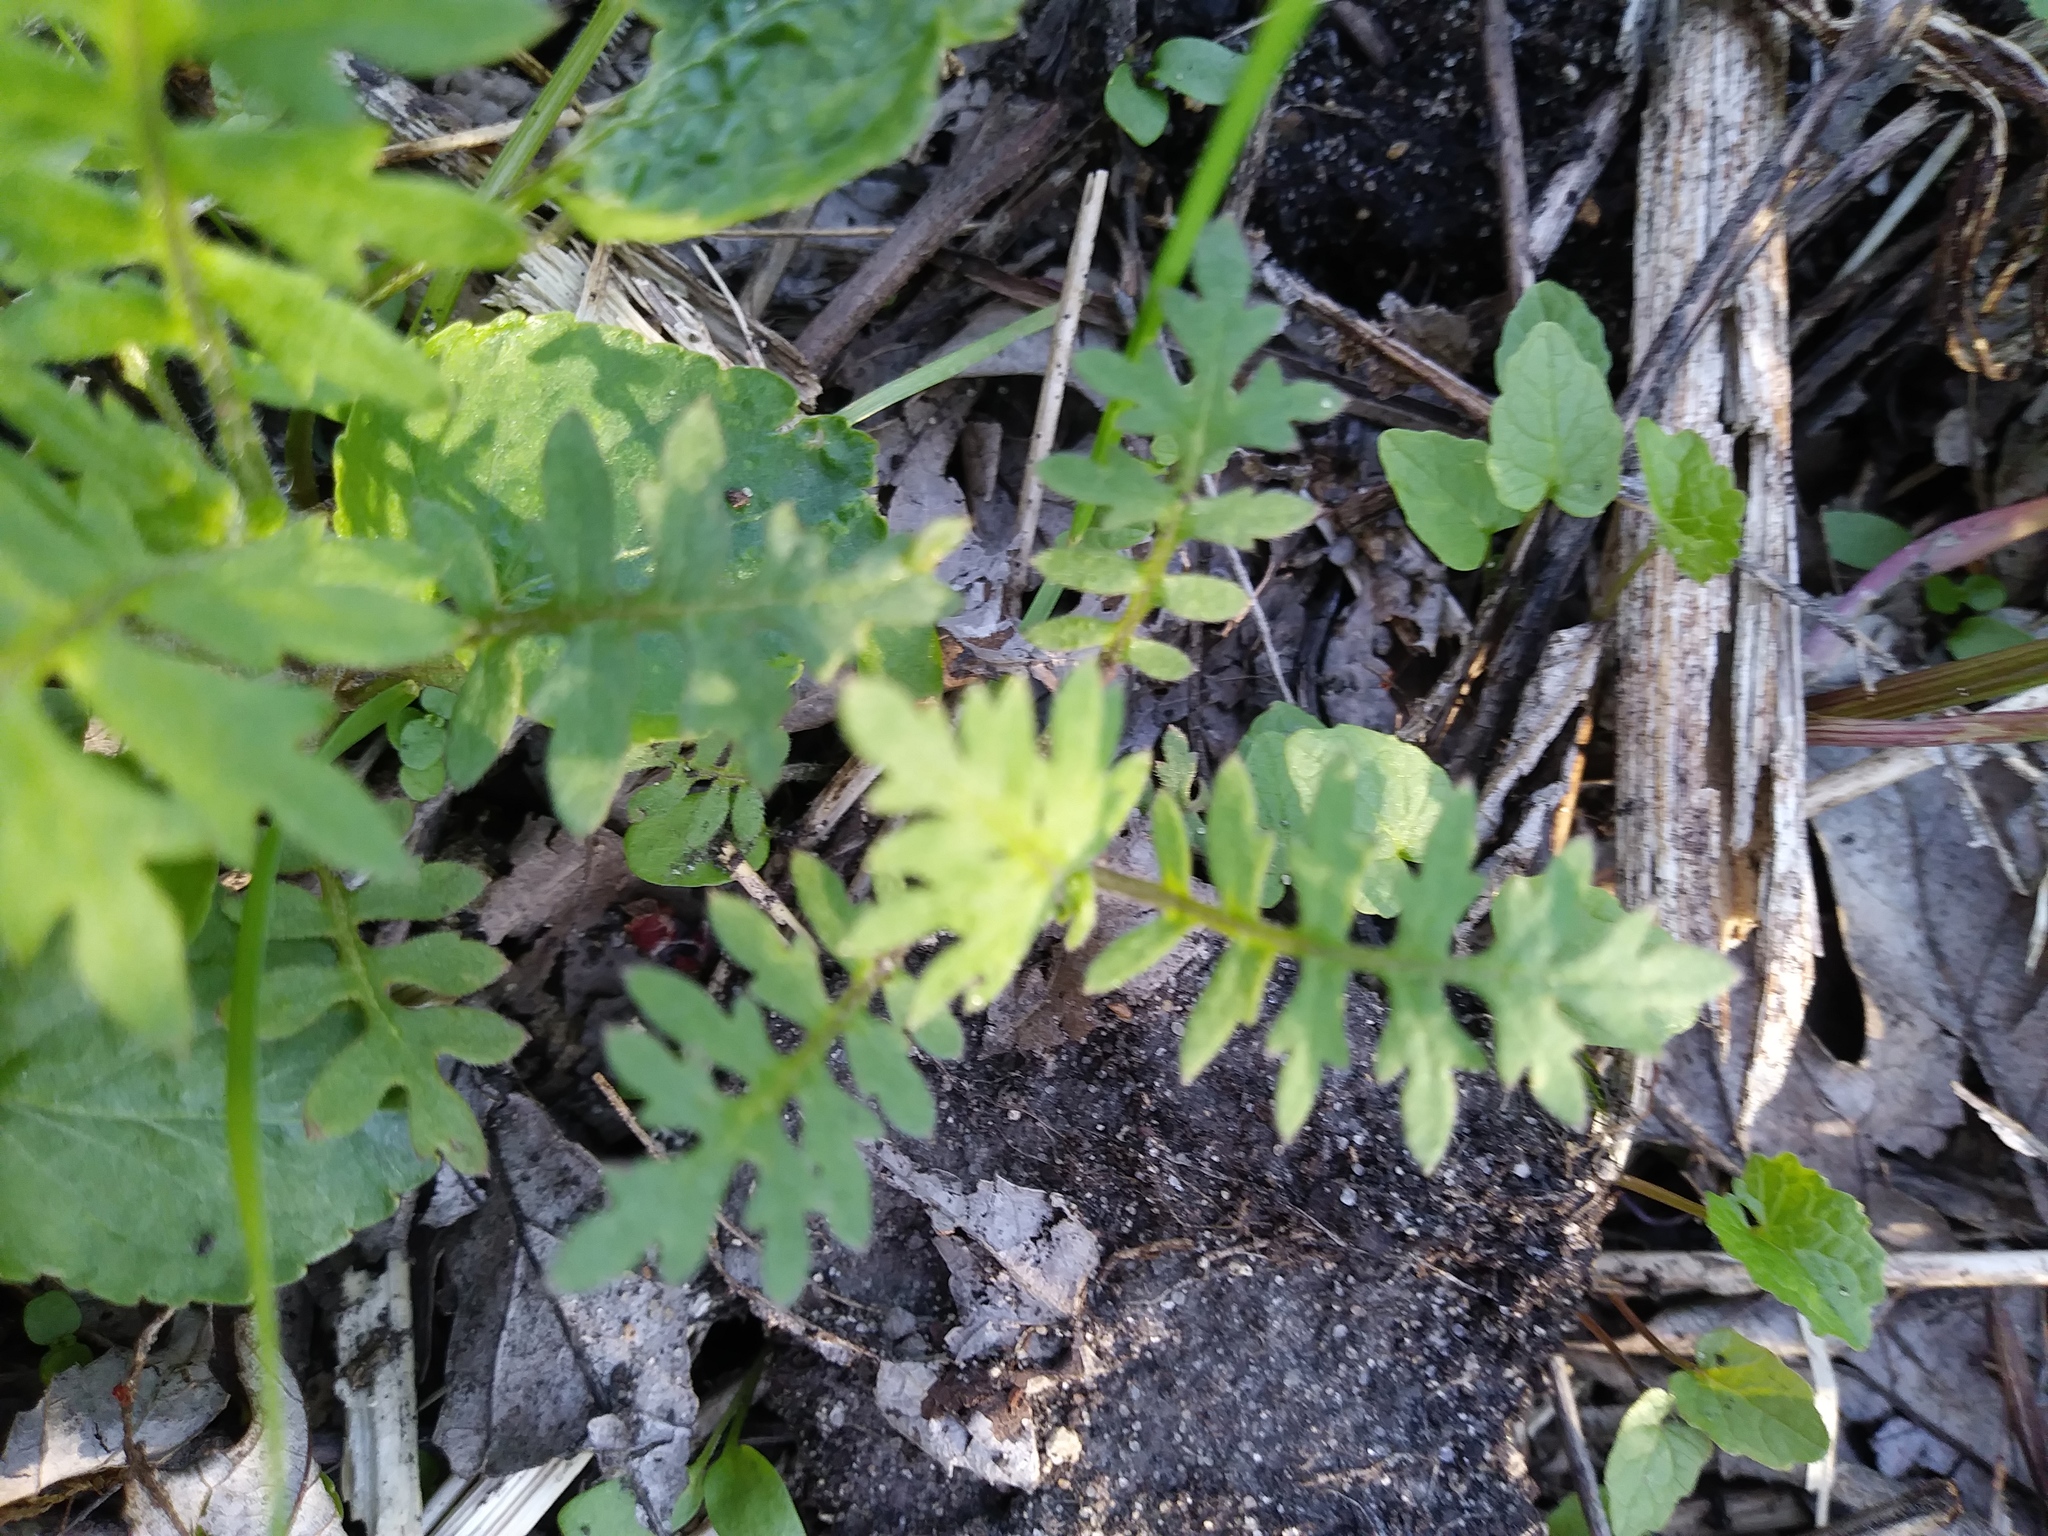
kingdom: Plantae
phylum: Tracheophyta
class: Magnoliopsida
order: Boraginales
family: Hydrophyllaceae
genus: Ellisia
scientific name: Ellisia nyctelea
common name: Aunt lucy
